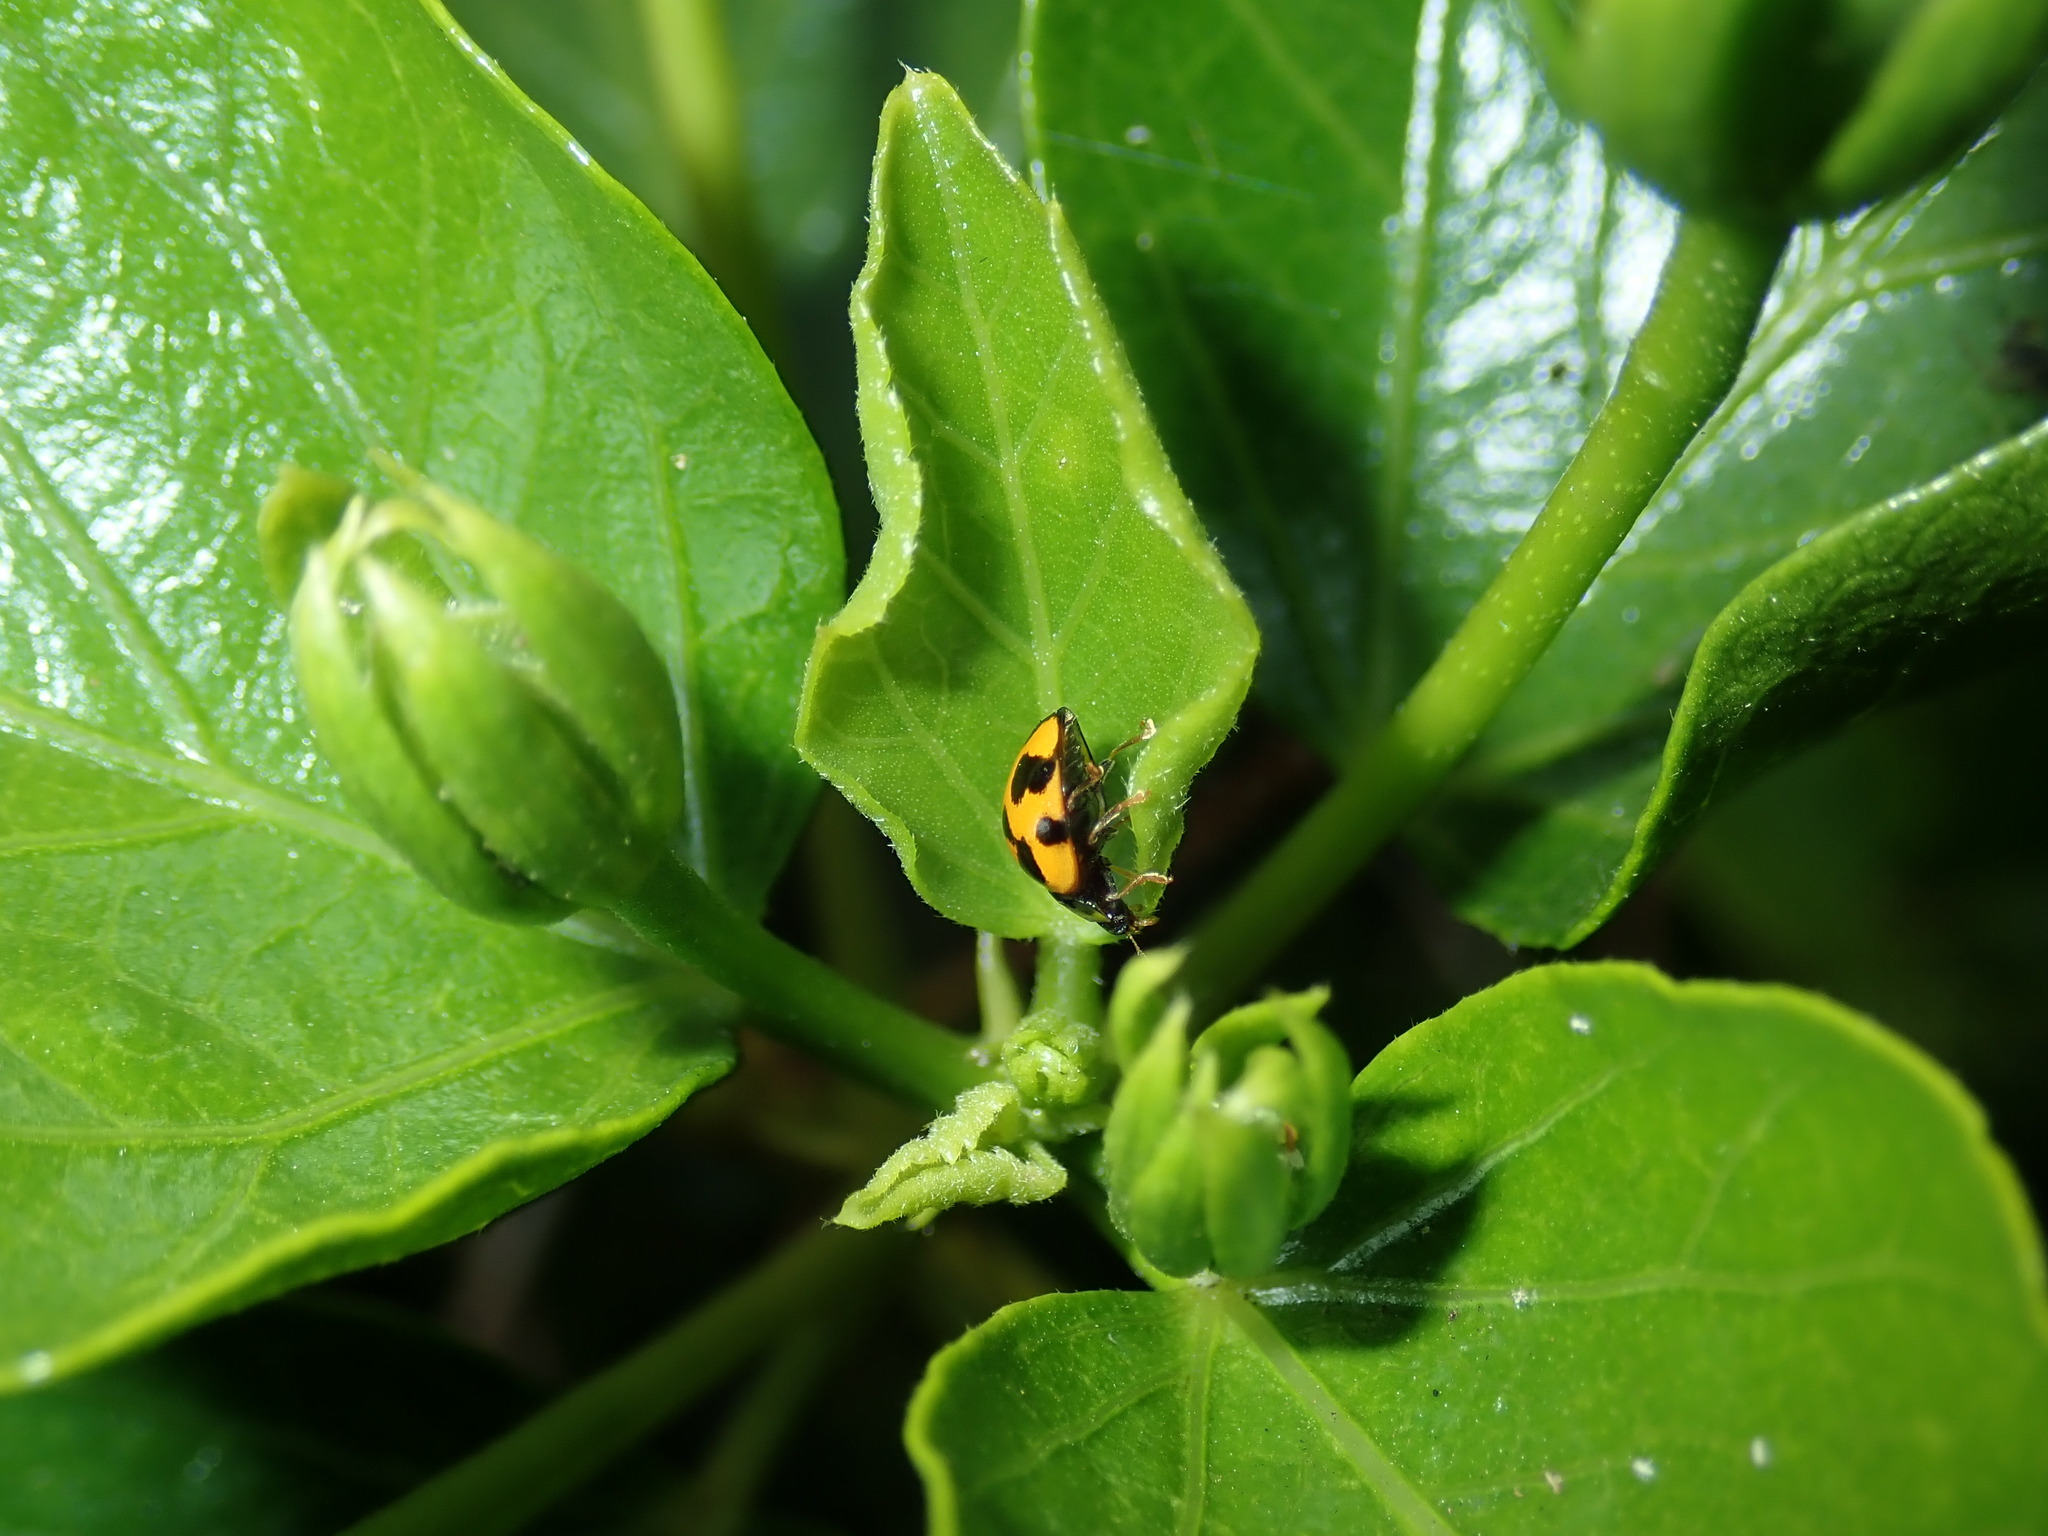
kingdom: Animalia
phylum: Arthropoda
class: Insecta
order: Coleoptera
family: Coccinellidae
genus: Coelophora
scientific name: Coelophora inaequalis
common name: Common australian lady beetle
